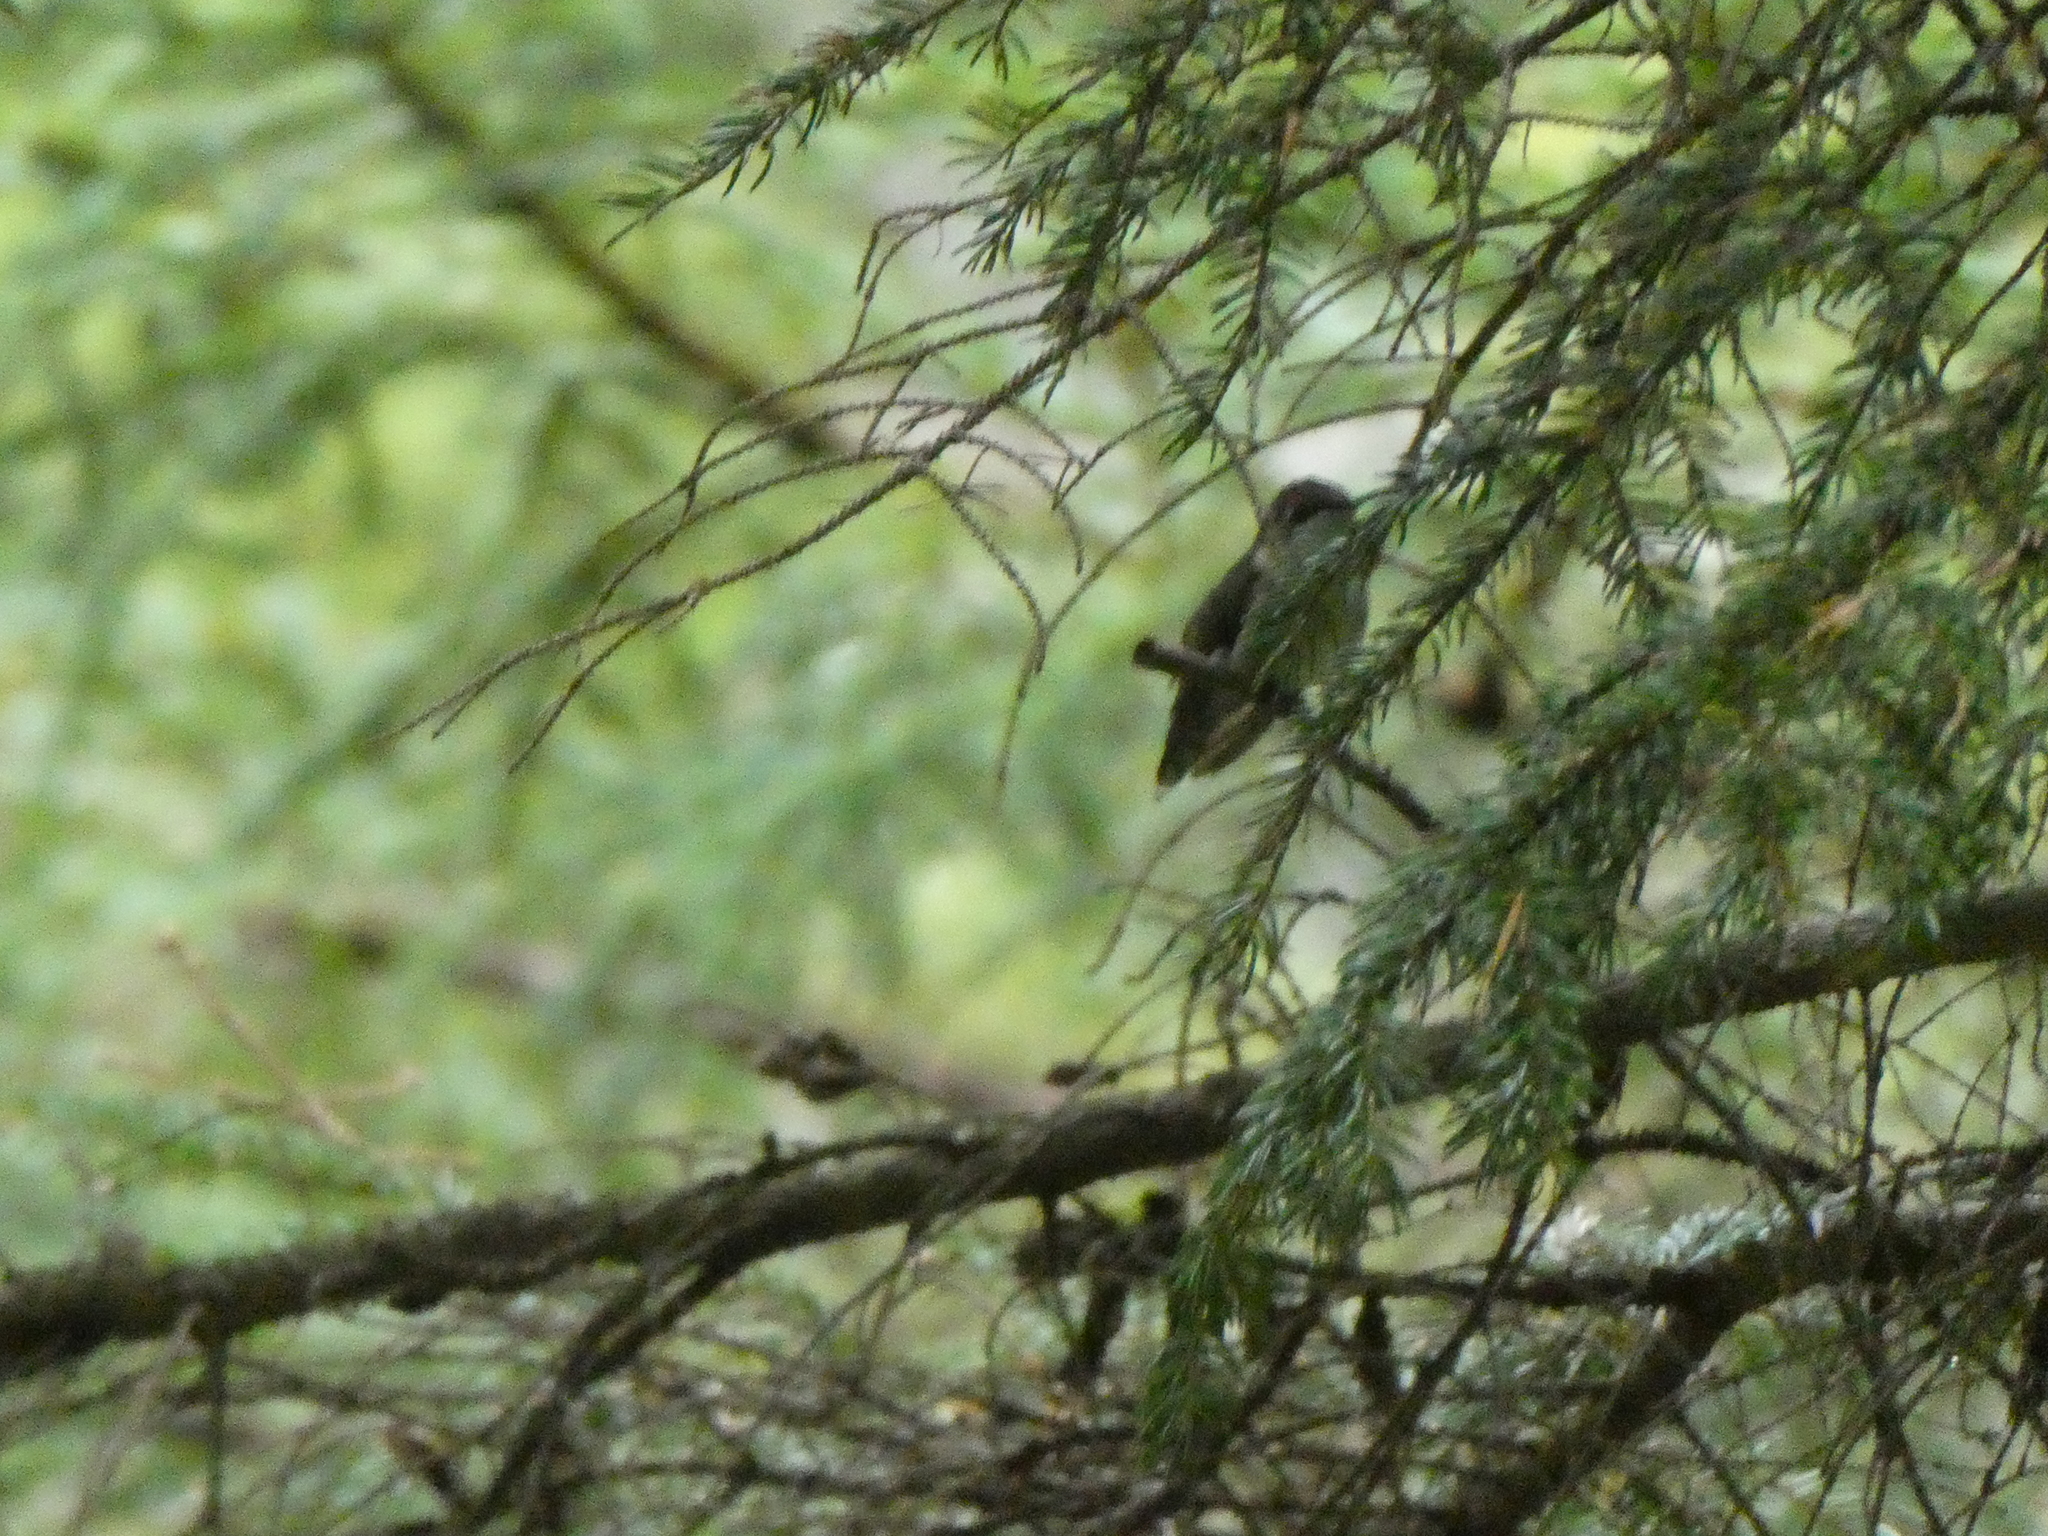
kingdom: Animalia
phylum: Chordata
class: Aves
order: Apodiformes
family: Trochilidae
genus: Archilochus
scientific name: Archilochus colubris
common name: Ruby-throated hummingbird
